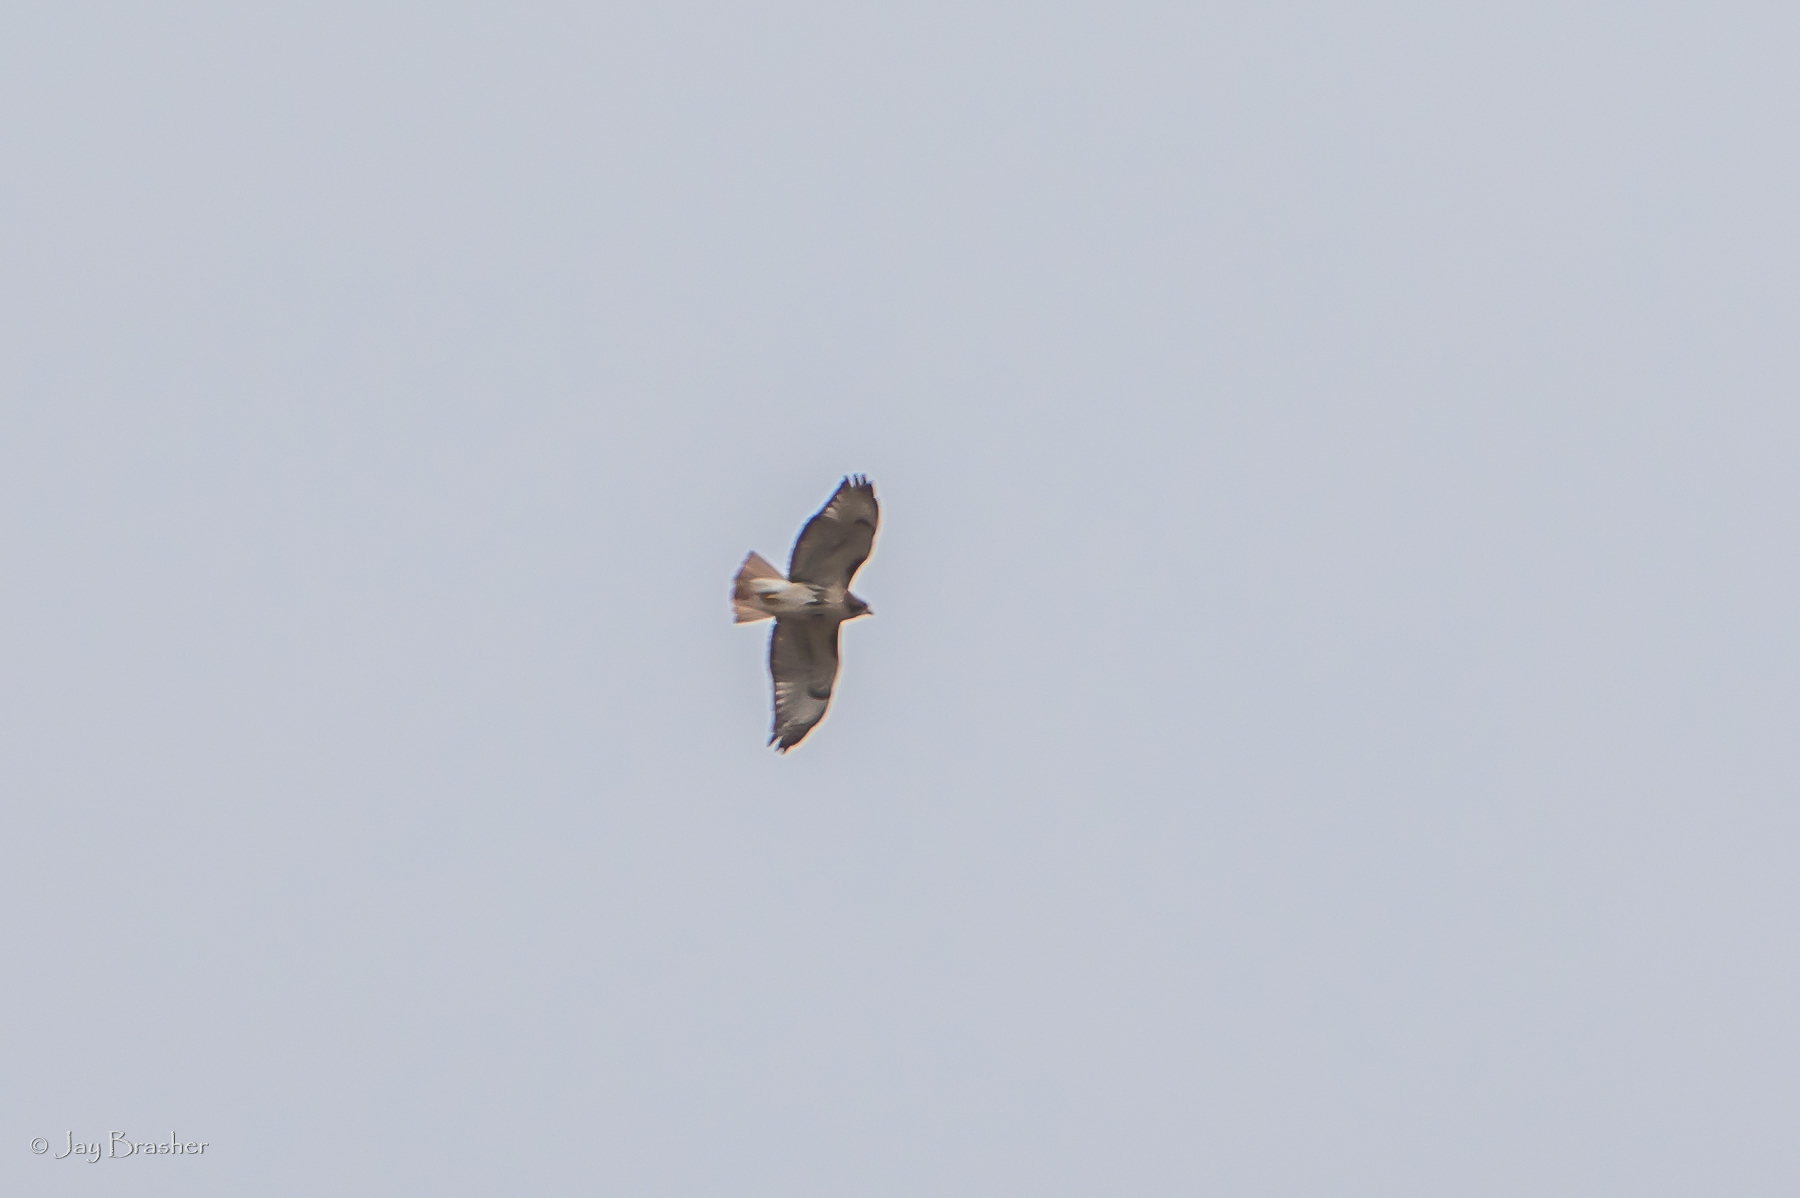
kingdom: Animalia
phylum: Chordata
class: Aves
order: Accipitriformes
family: Accipitridae
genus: Buteo
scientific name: Buteo jamaicensis
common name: Red-tailed hawk
